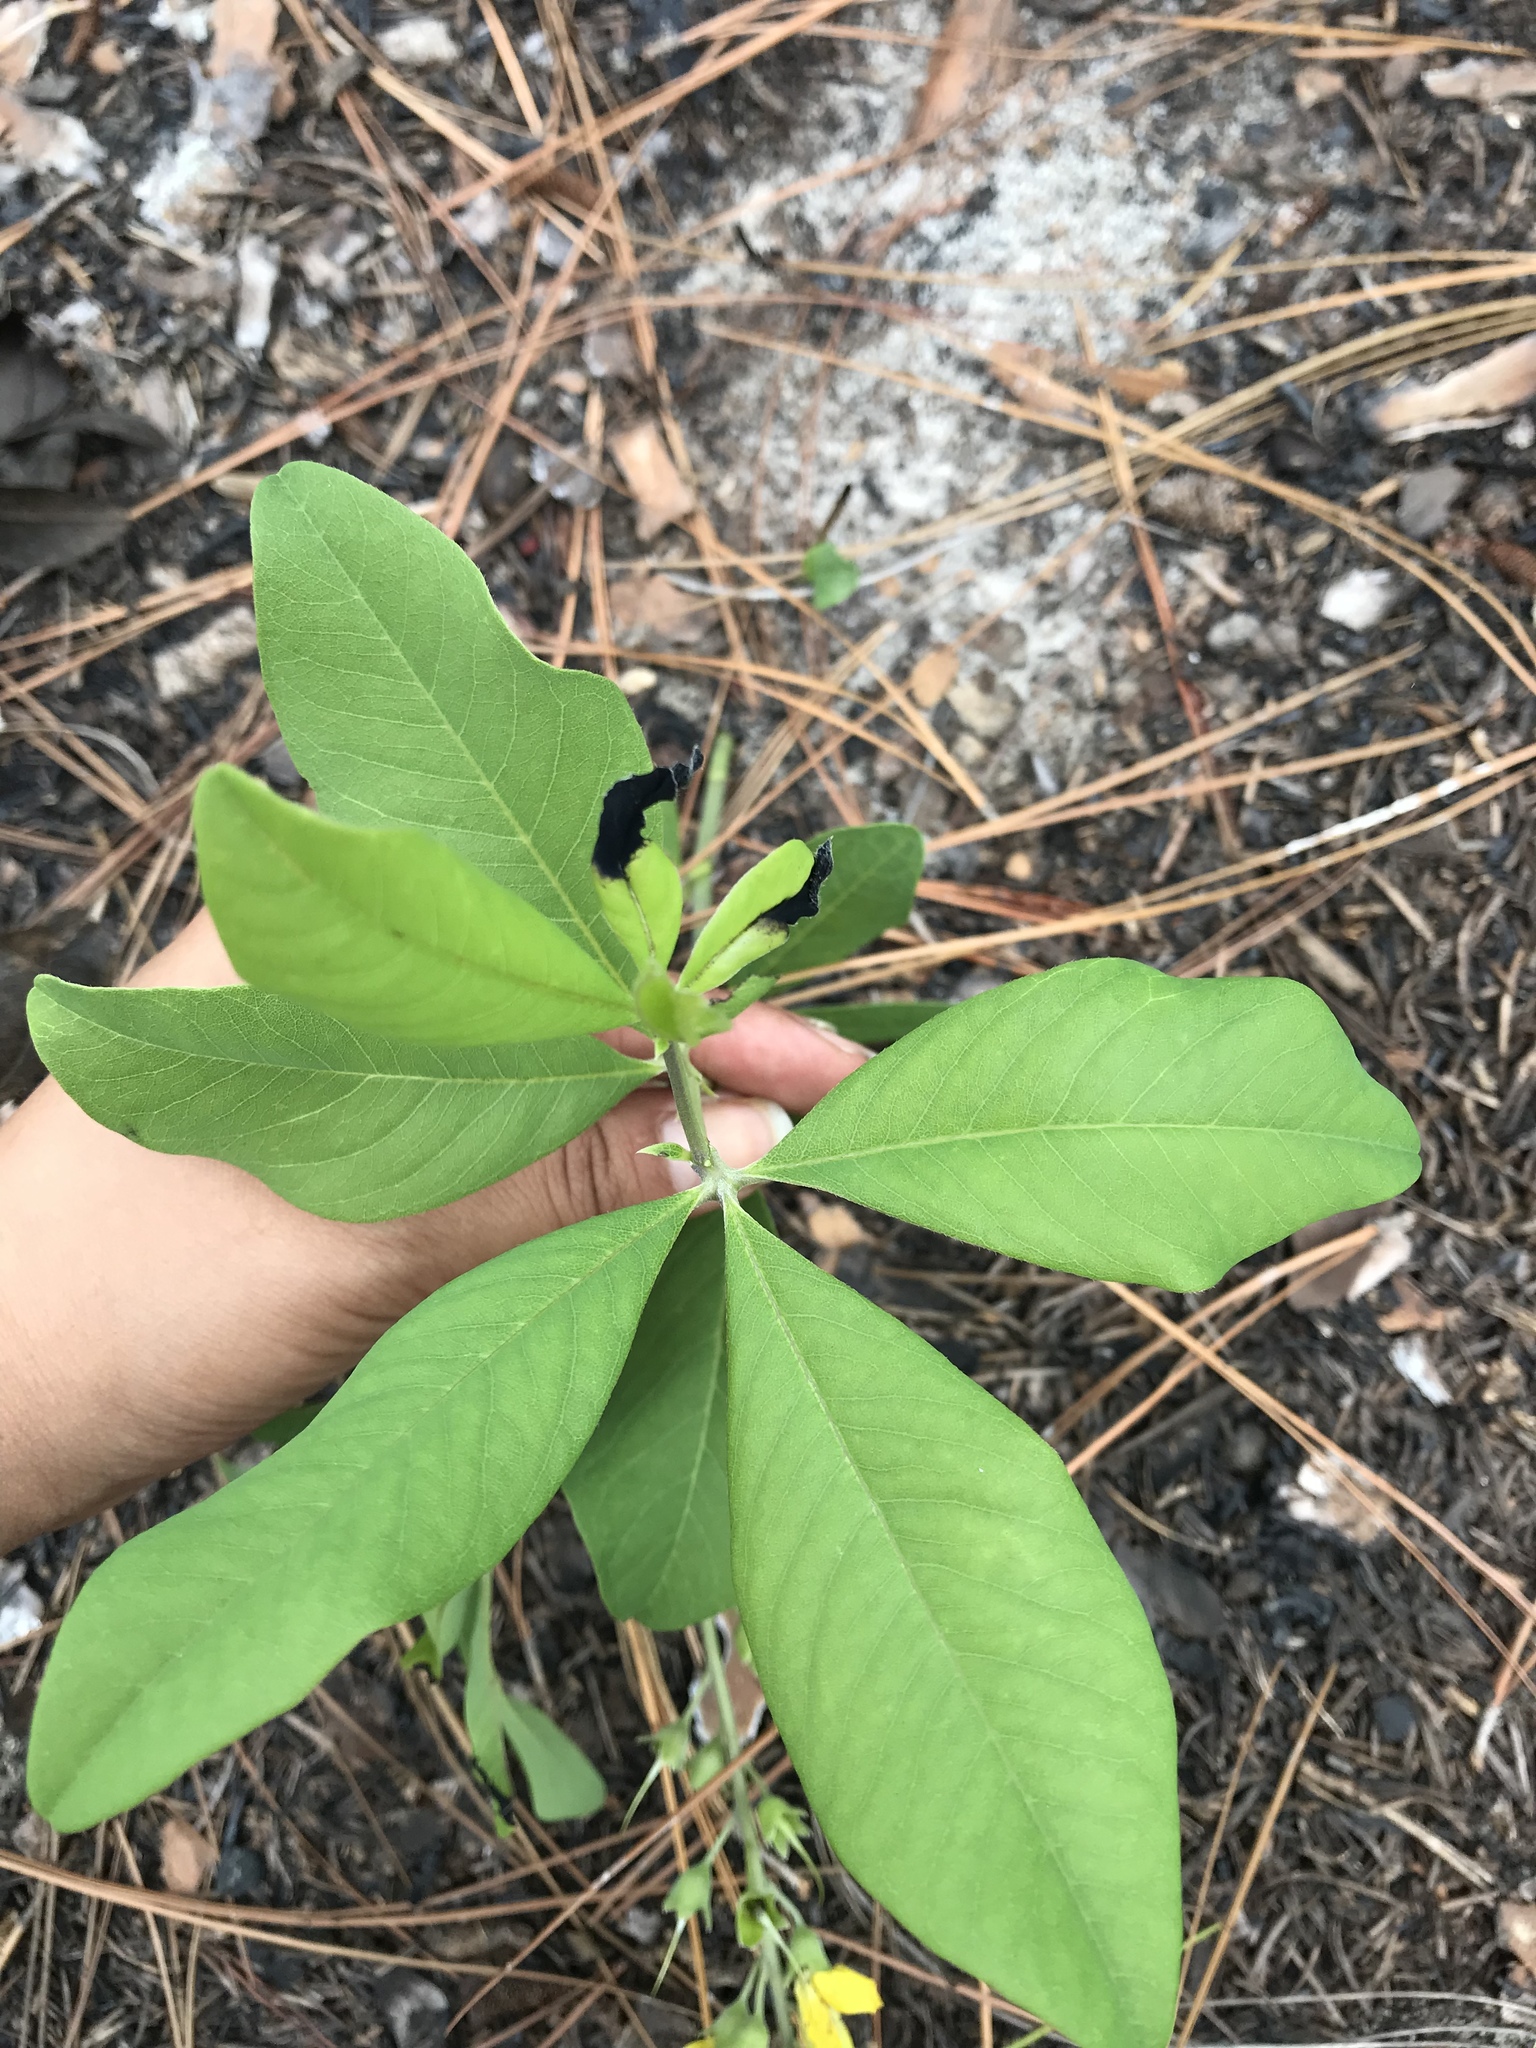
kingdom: Plantae
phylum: Tracheophyta
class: Magnoliopsida
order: Fabales
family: Fabaceae
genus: Baptisia
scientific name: Baptisia cinerea
